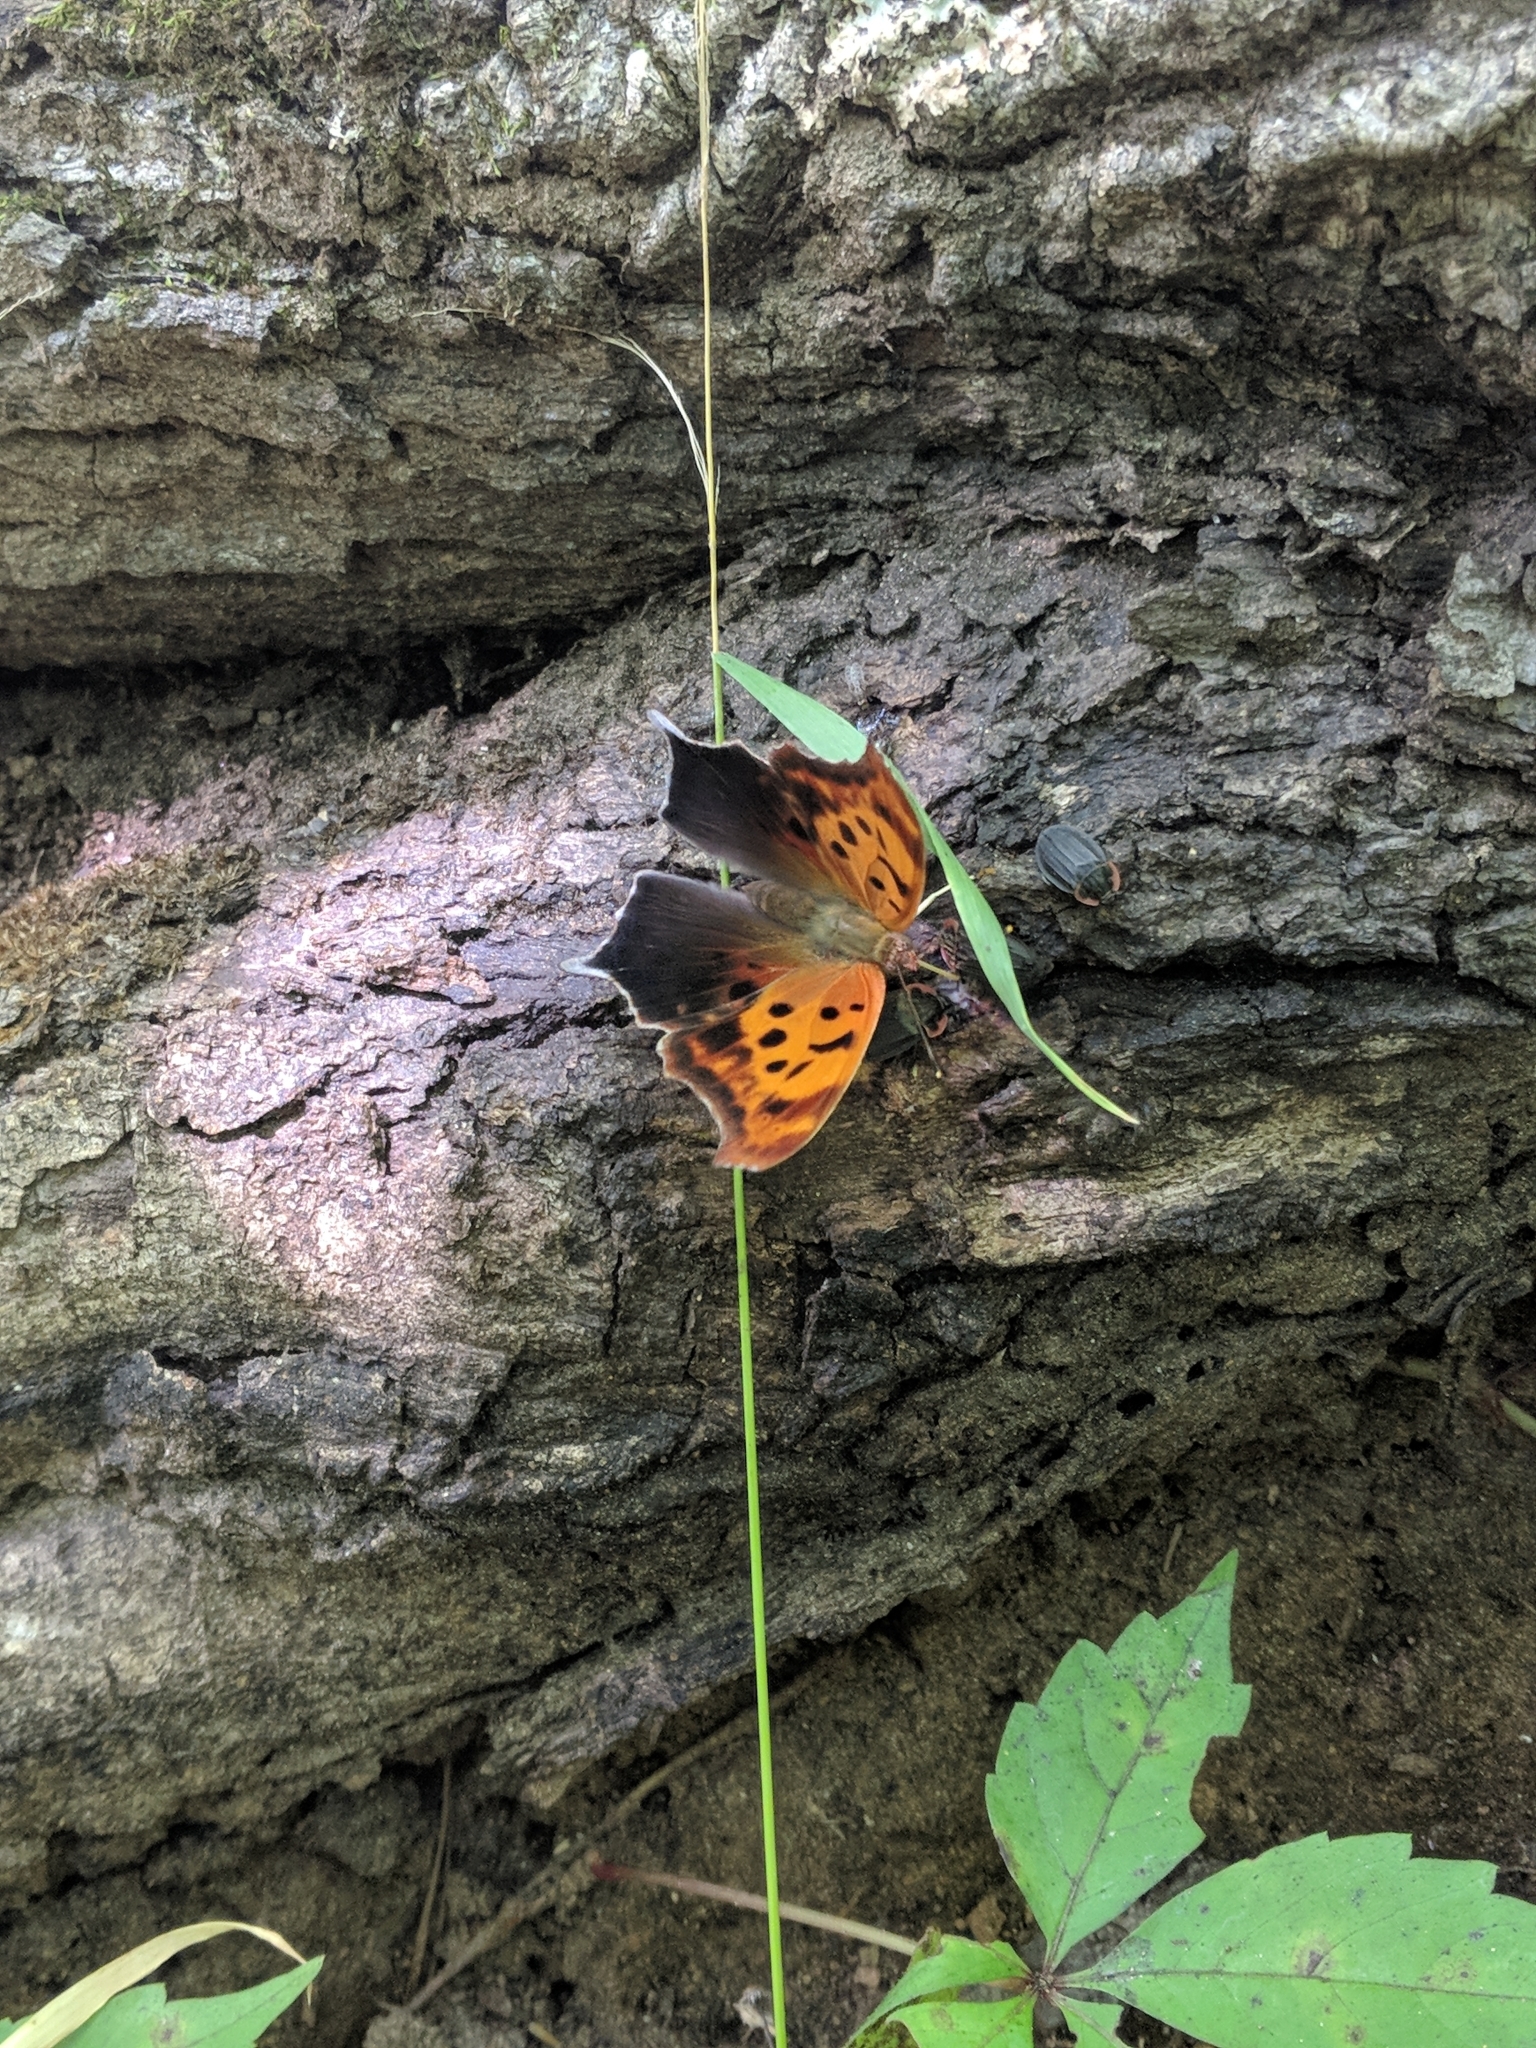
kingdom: Animalia
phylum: Arthropoda
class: Insecta
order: Lepidoptera
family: Nymphalidae
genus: Polygonia
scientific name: Polygonia interrogationis
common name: Question mark
